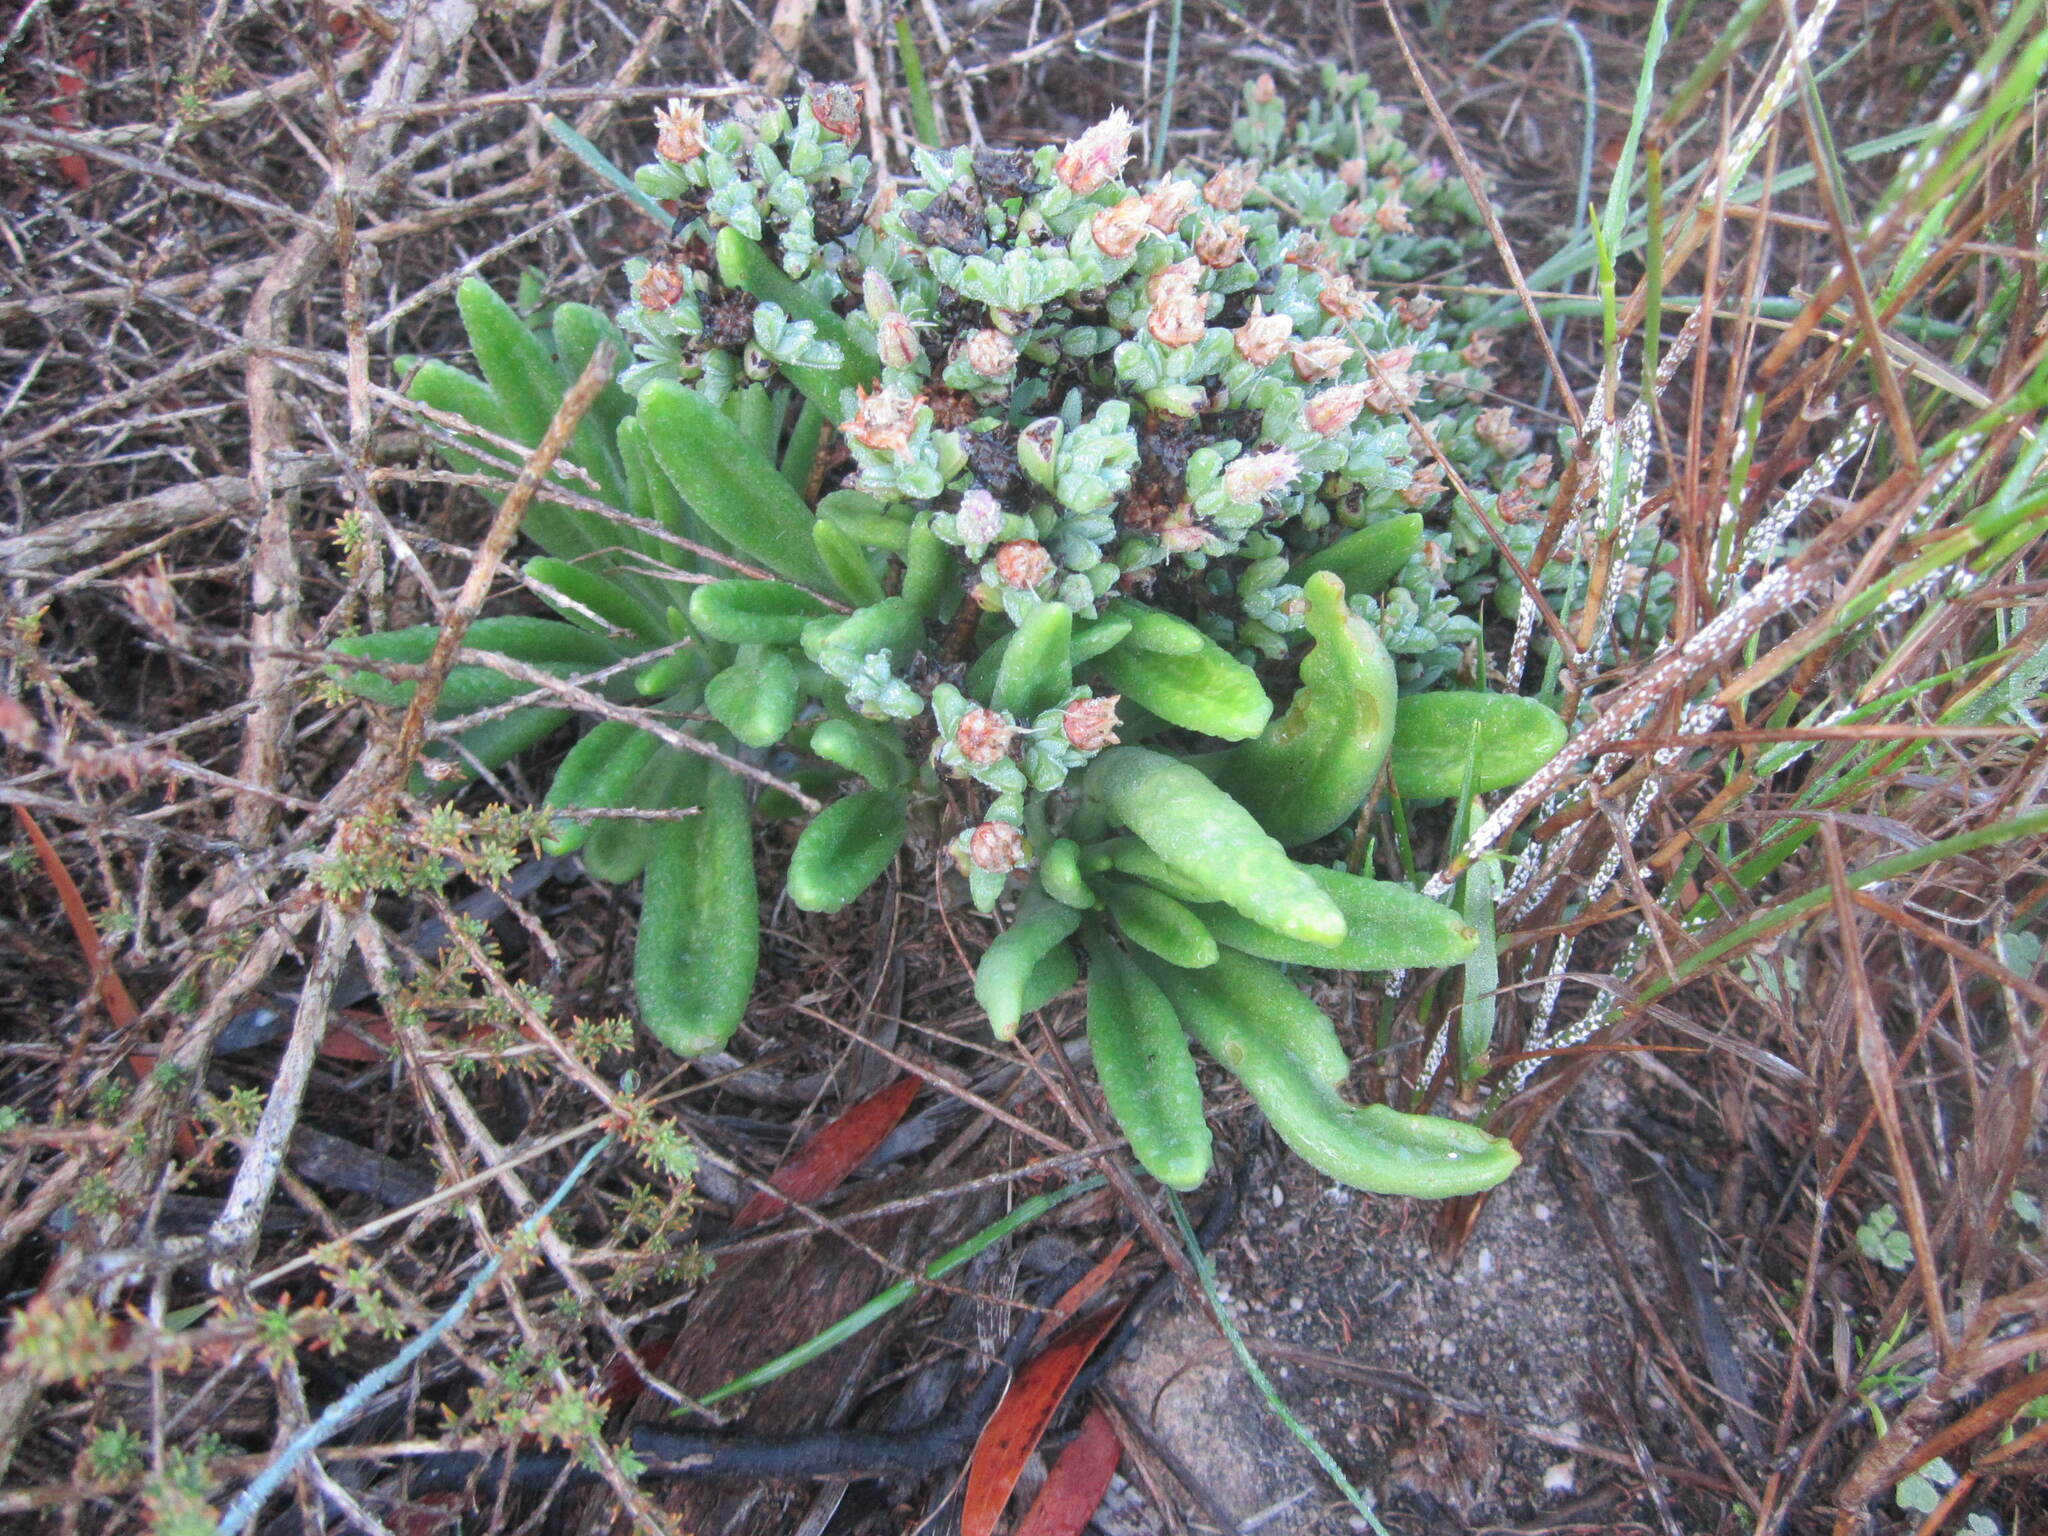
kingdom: Plantae
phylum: Tracheophyta
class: Magnoliopsida
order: Saxifragales
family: Crassulaceae
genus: Tylecodon
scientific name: Tylecodon ventricosus
